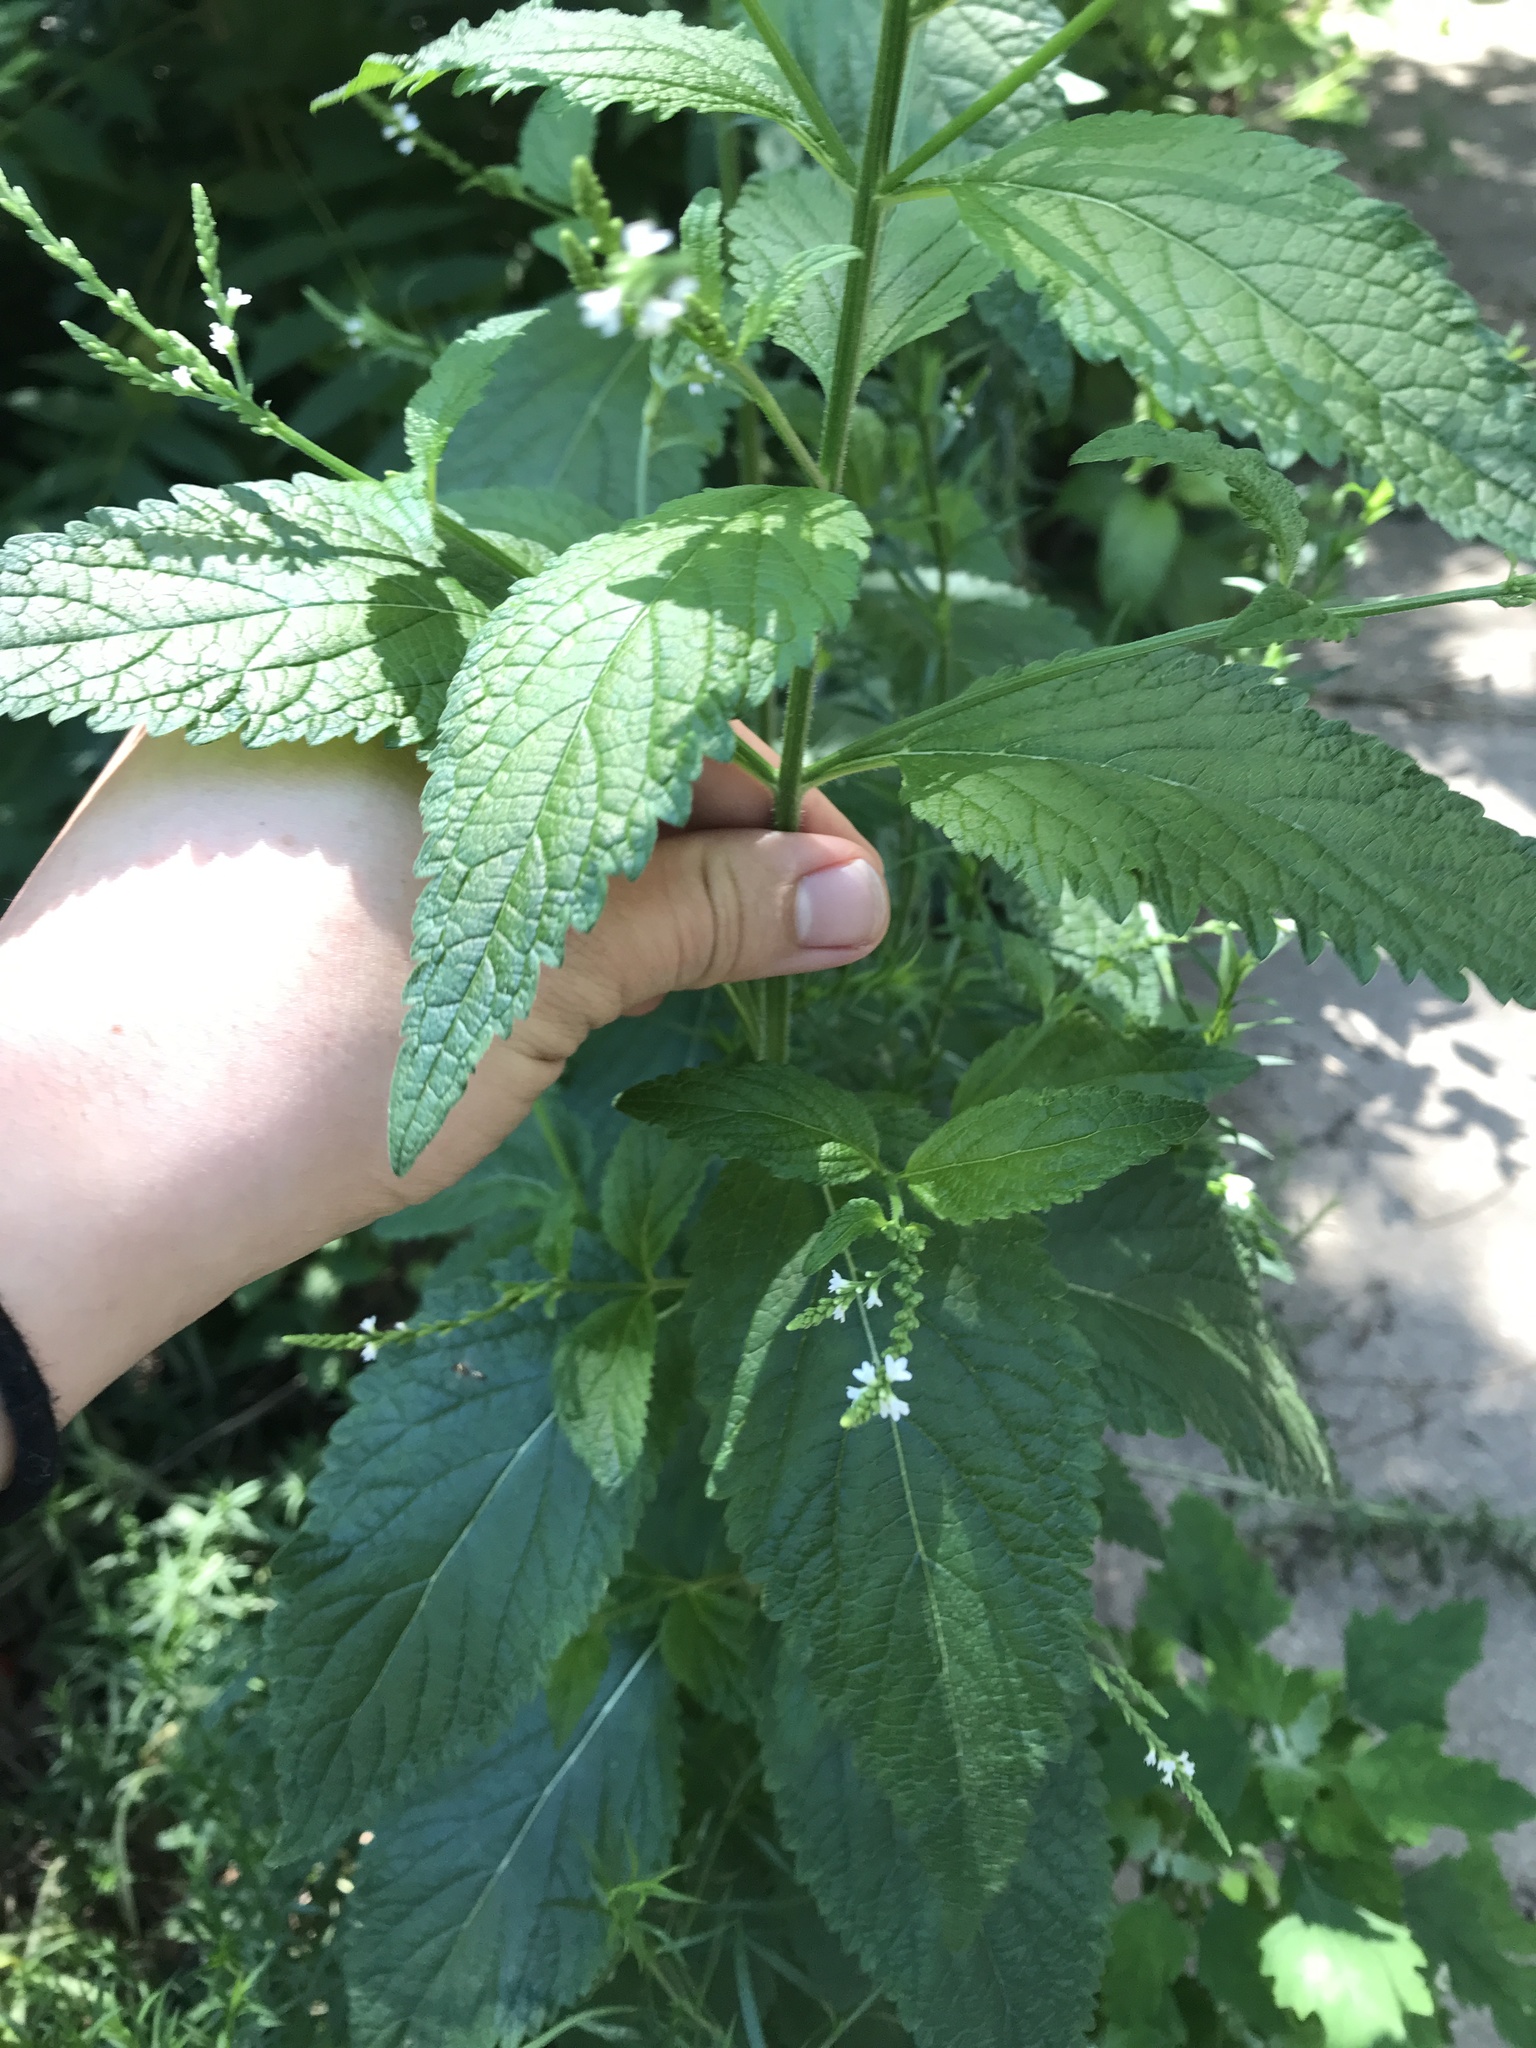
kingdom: Plantae
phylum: Tracheophyta
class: Magnoliopsida
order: Lamiales
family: Verbenaceae
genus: Verbena
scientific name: Verbena urticifolia
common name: Nettle-leaved vervain
